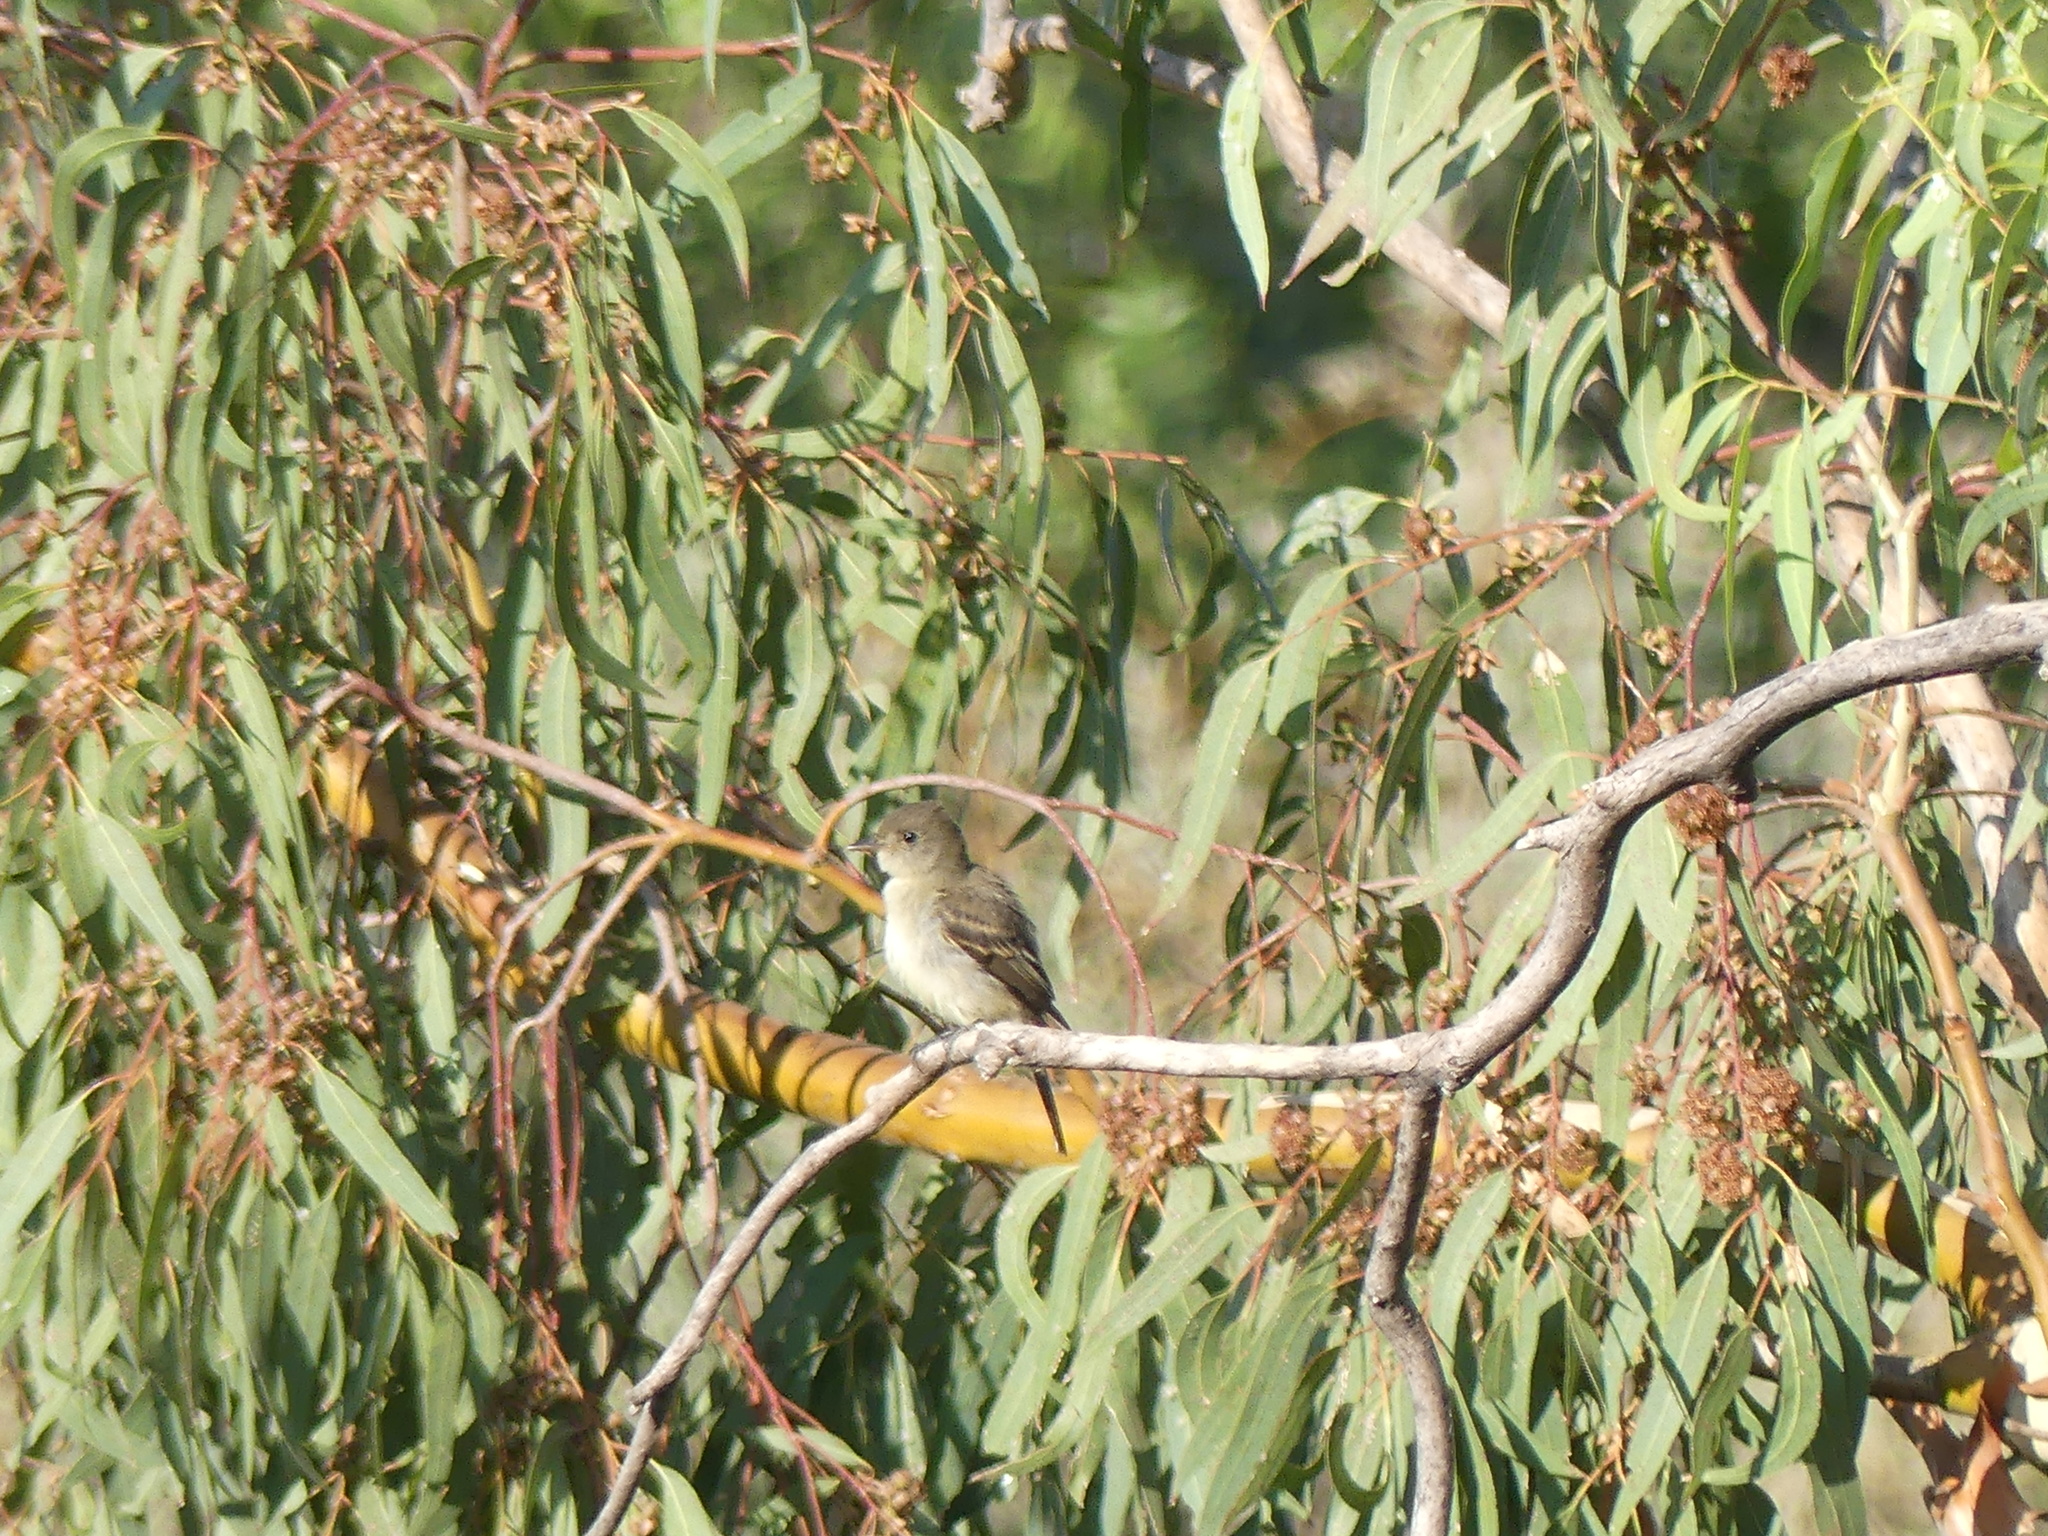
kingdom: Animalia
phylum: Chordata
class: Aves
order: Passeriformes
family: Tyrannidae
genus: Empidonax
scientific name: Empidonax traillii
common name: Willow flycatcher
